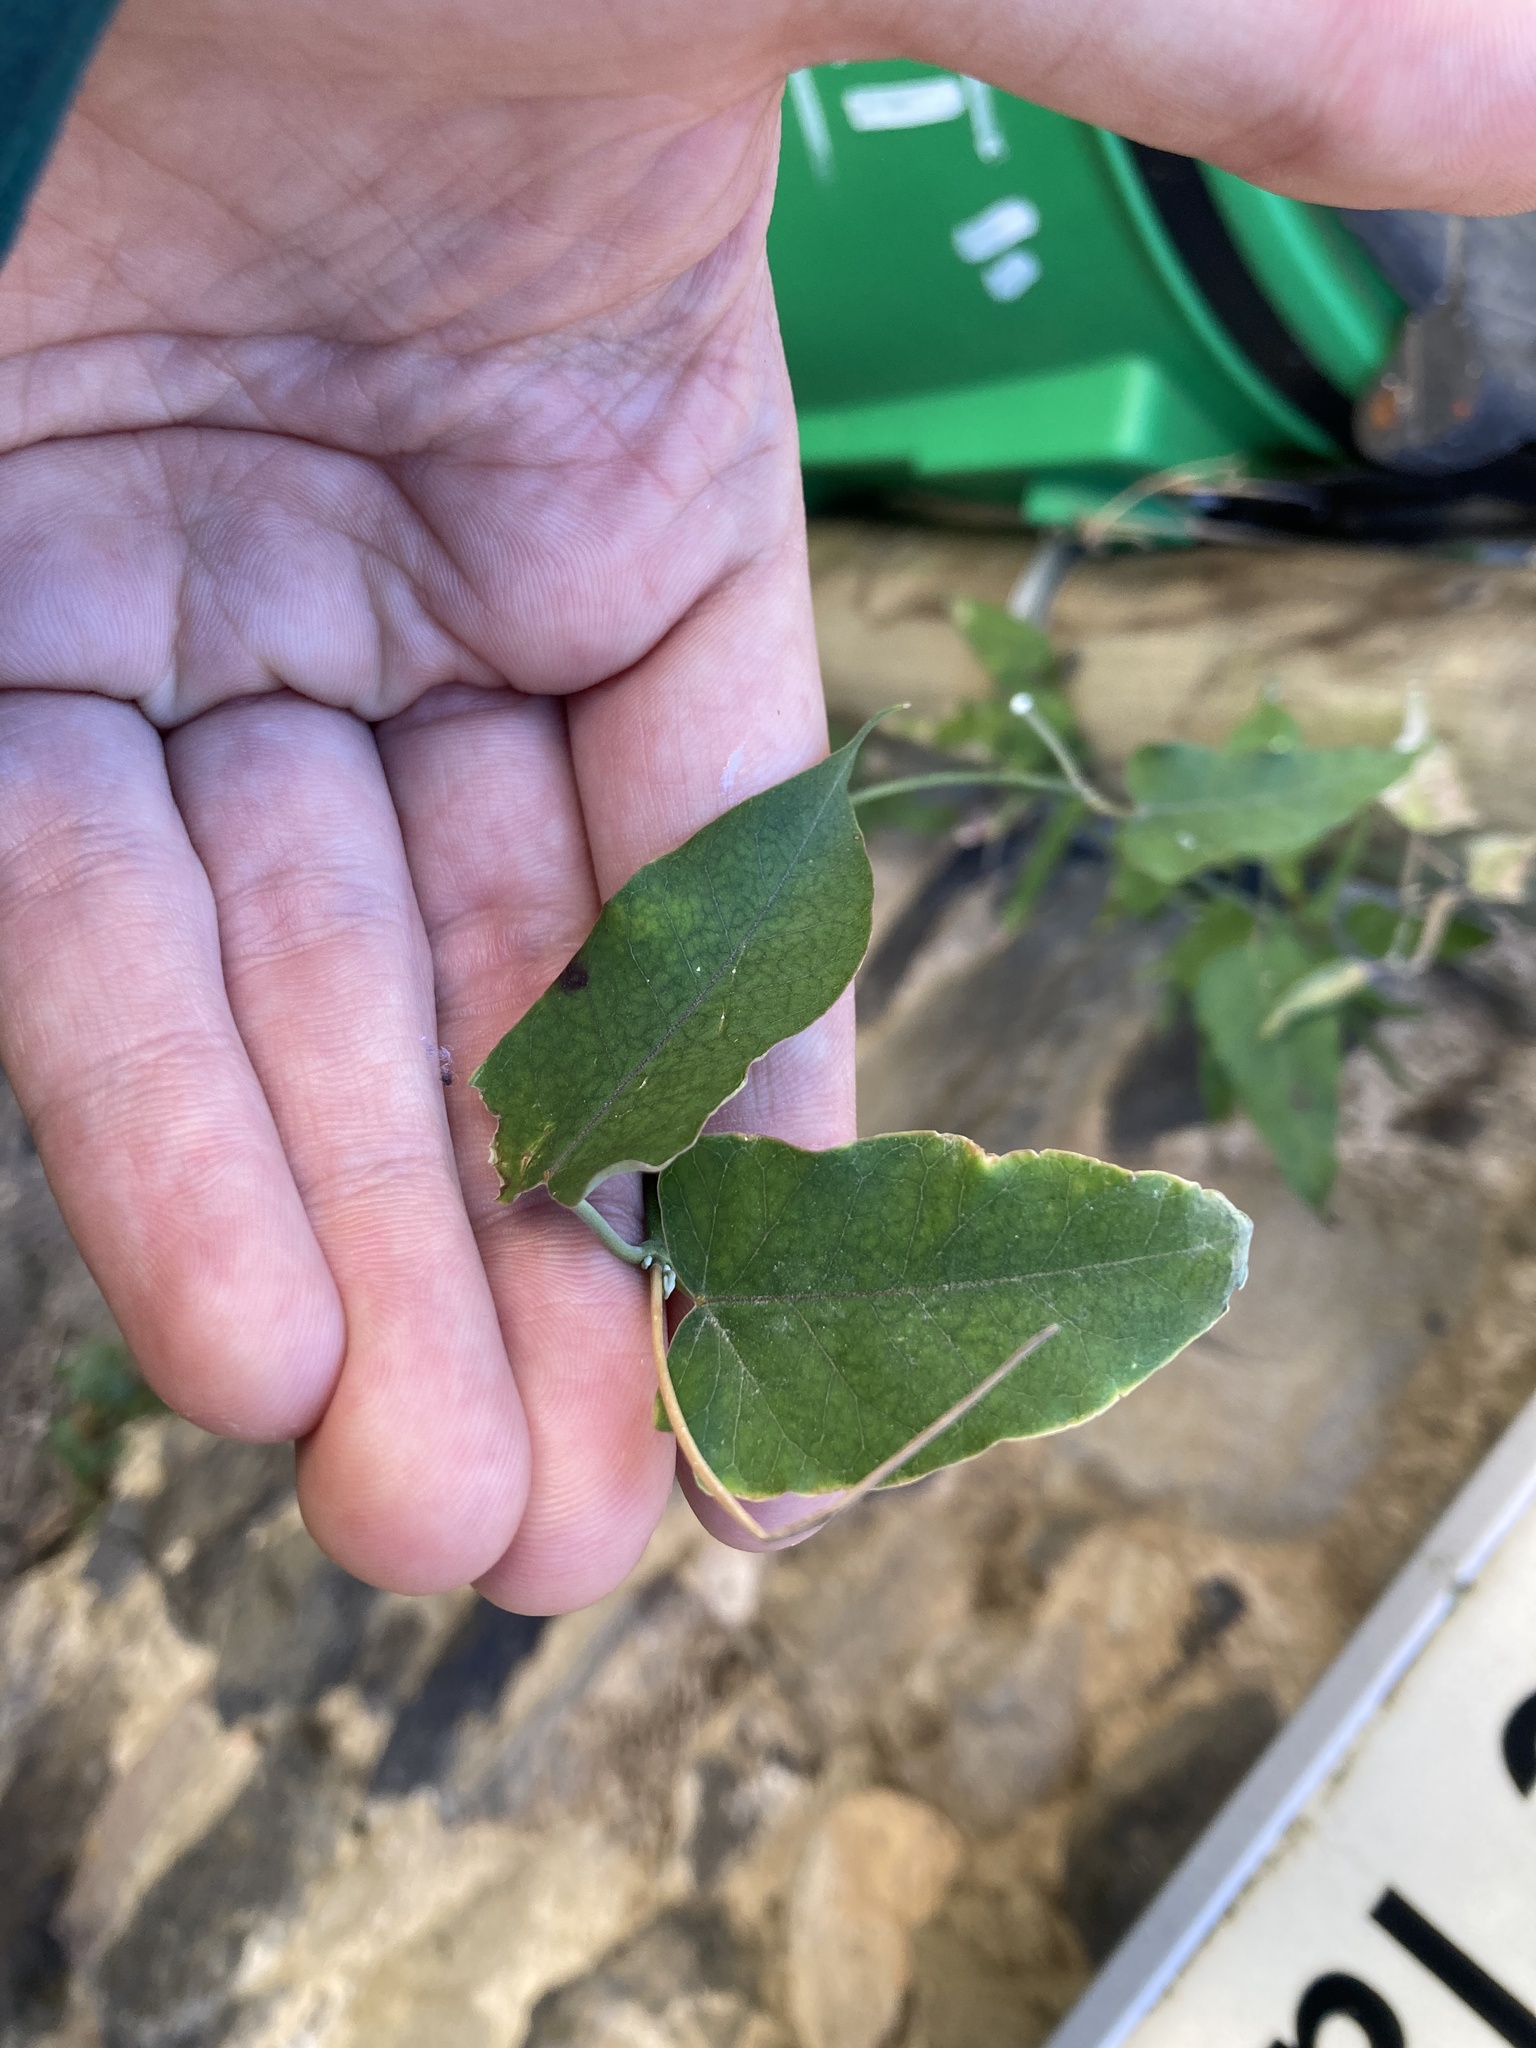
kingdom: Plantae
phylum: Tracheophyta
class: Magnoliopsida
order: Gentianales
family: Apocynaceae
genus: Araujia
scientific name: Araujia sericifera
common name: White bladderflower
